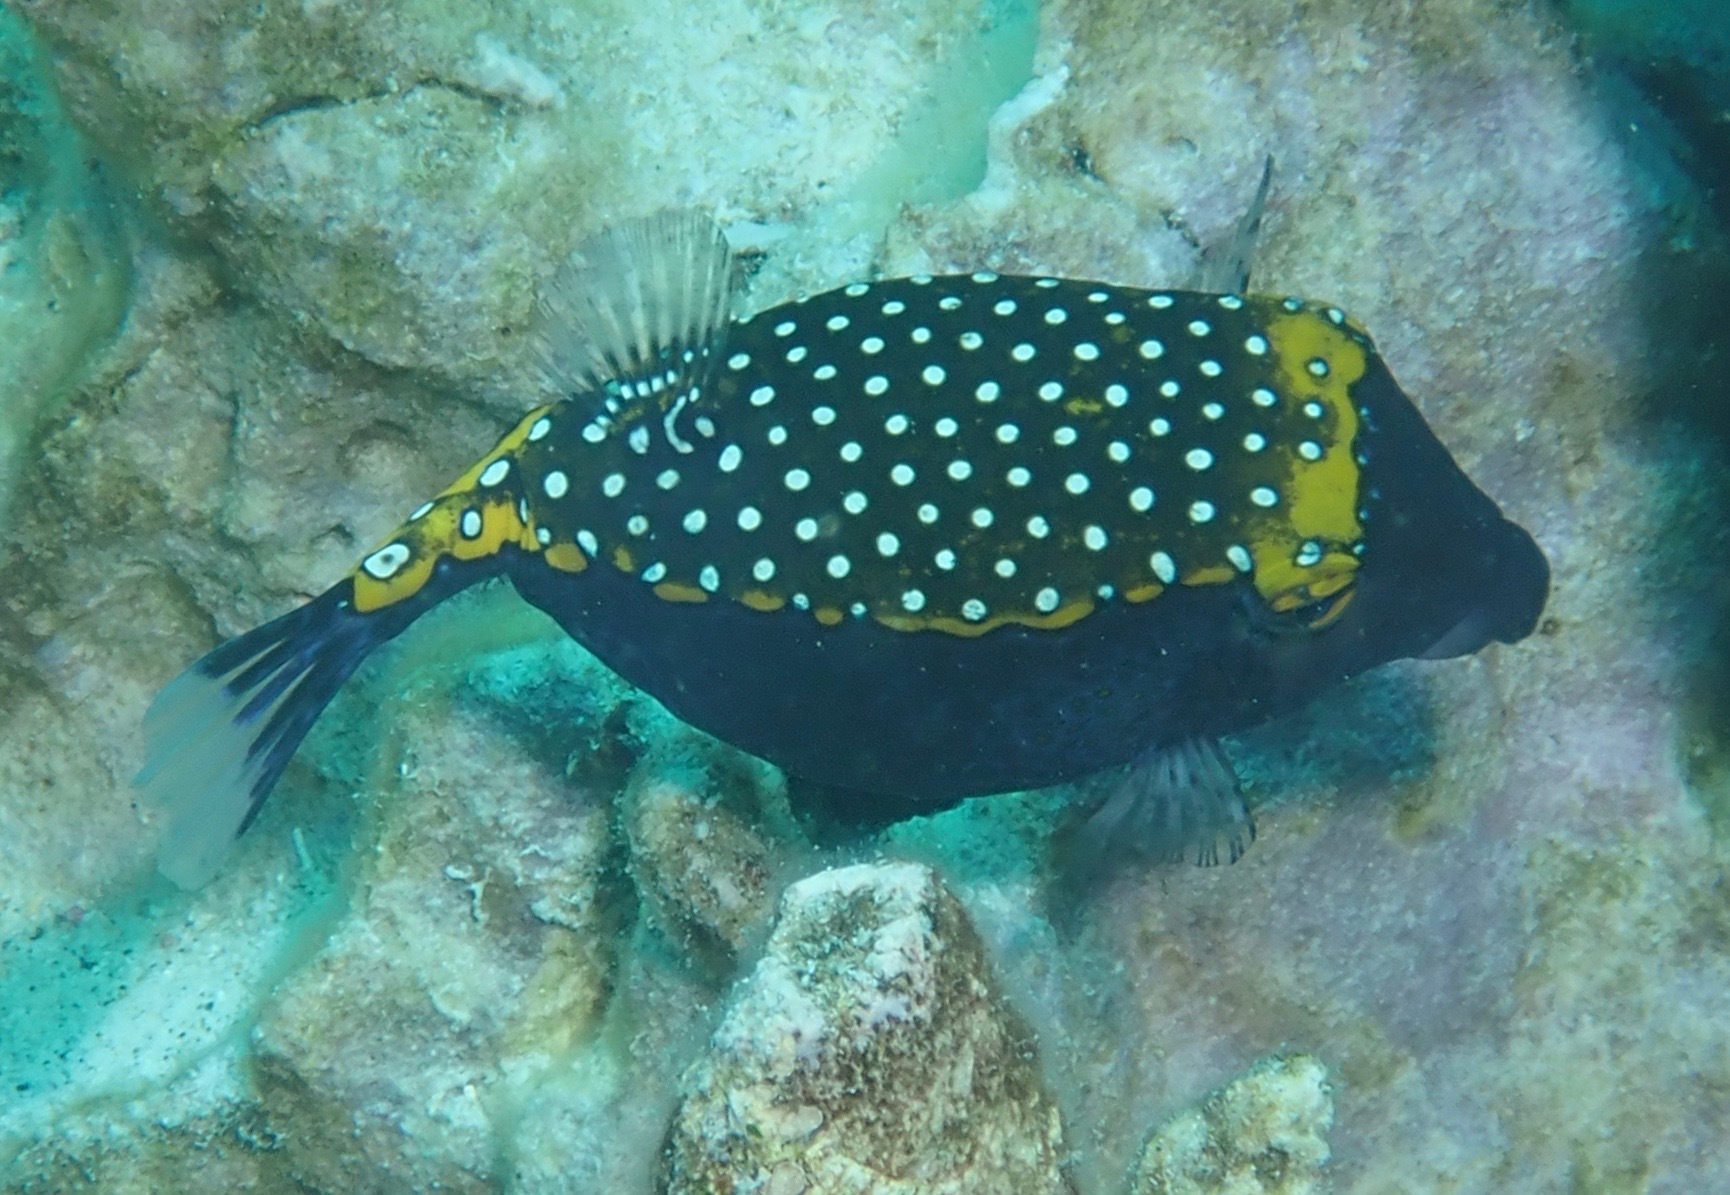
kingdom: Animalia
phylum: Chordata
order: Tetraodontiformes
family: Ostraciidae
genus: Ostracion
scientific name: Ostracion meleagris
